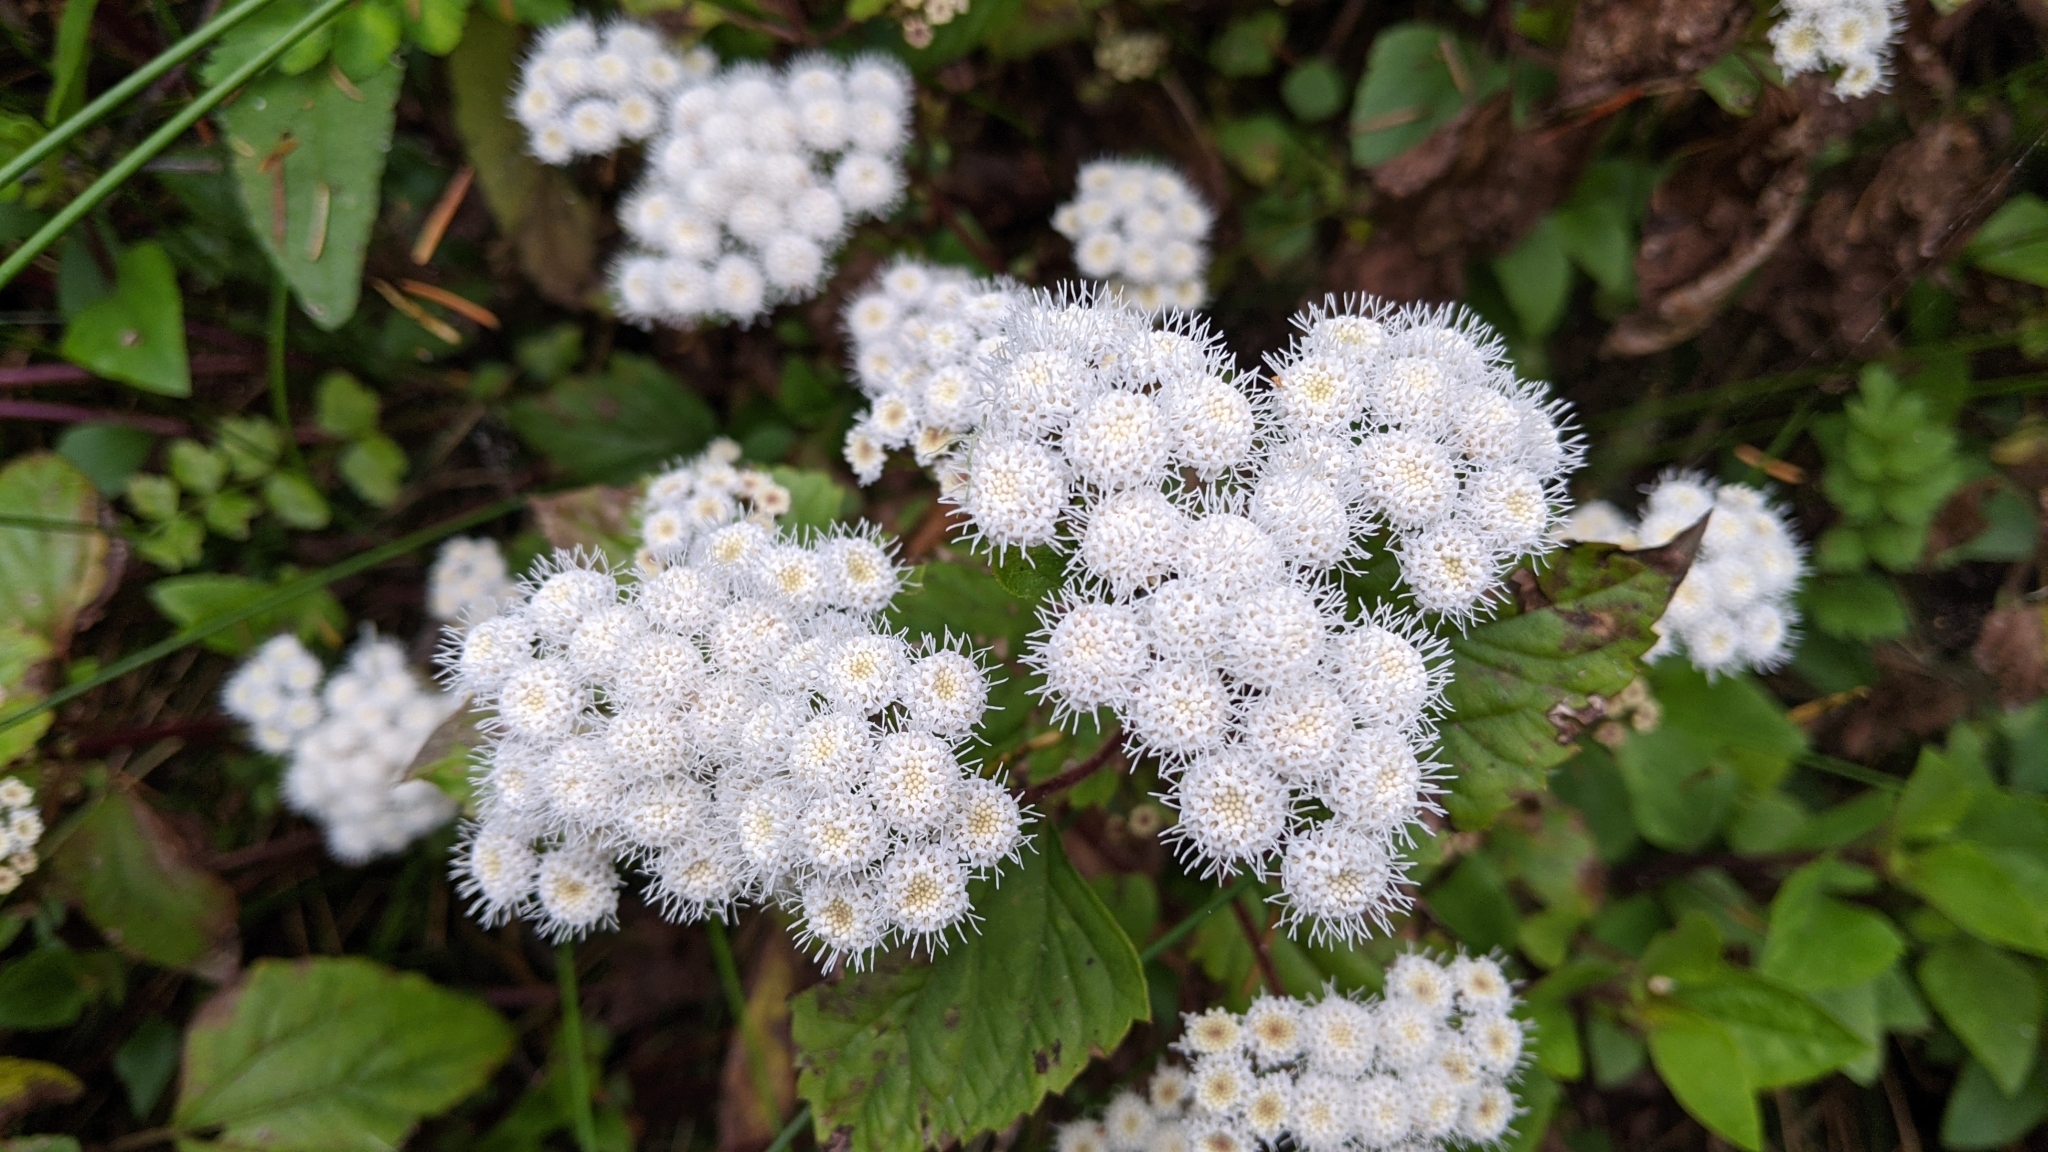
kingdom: Plantae
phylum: Tracheophyta
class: Magnoliopsida
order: Asterales
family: Asteraceae
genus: Ageratina
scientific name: Ageratina adenophora
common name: Sticky snakeroot
